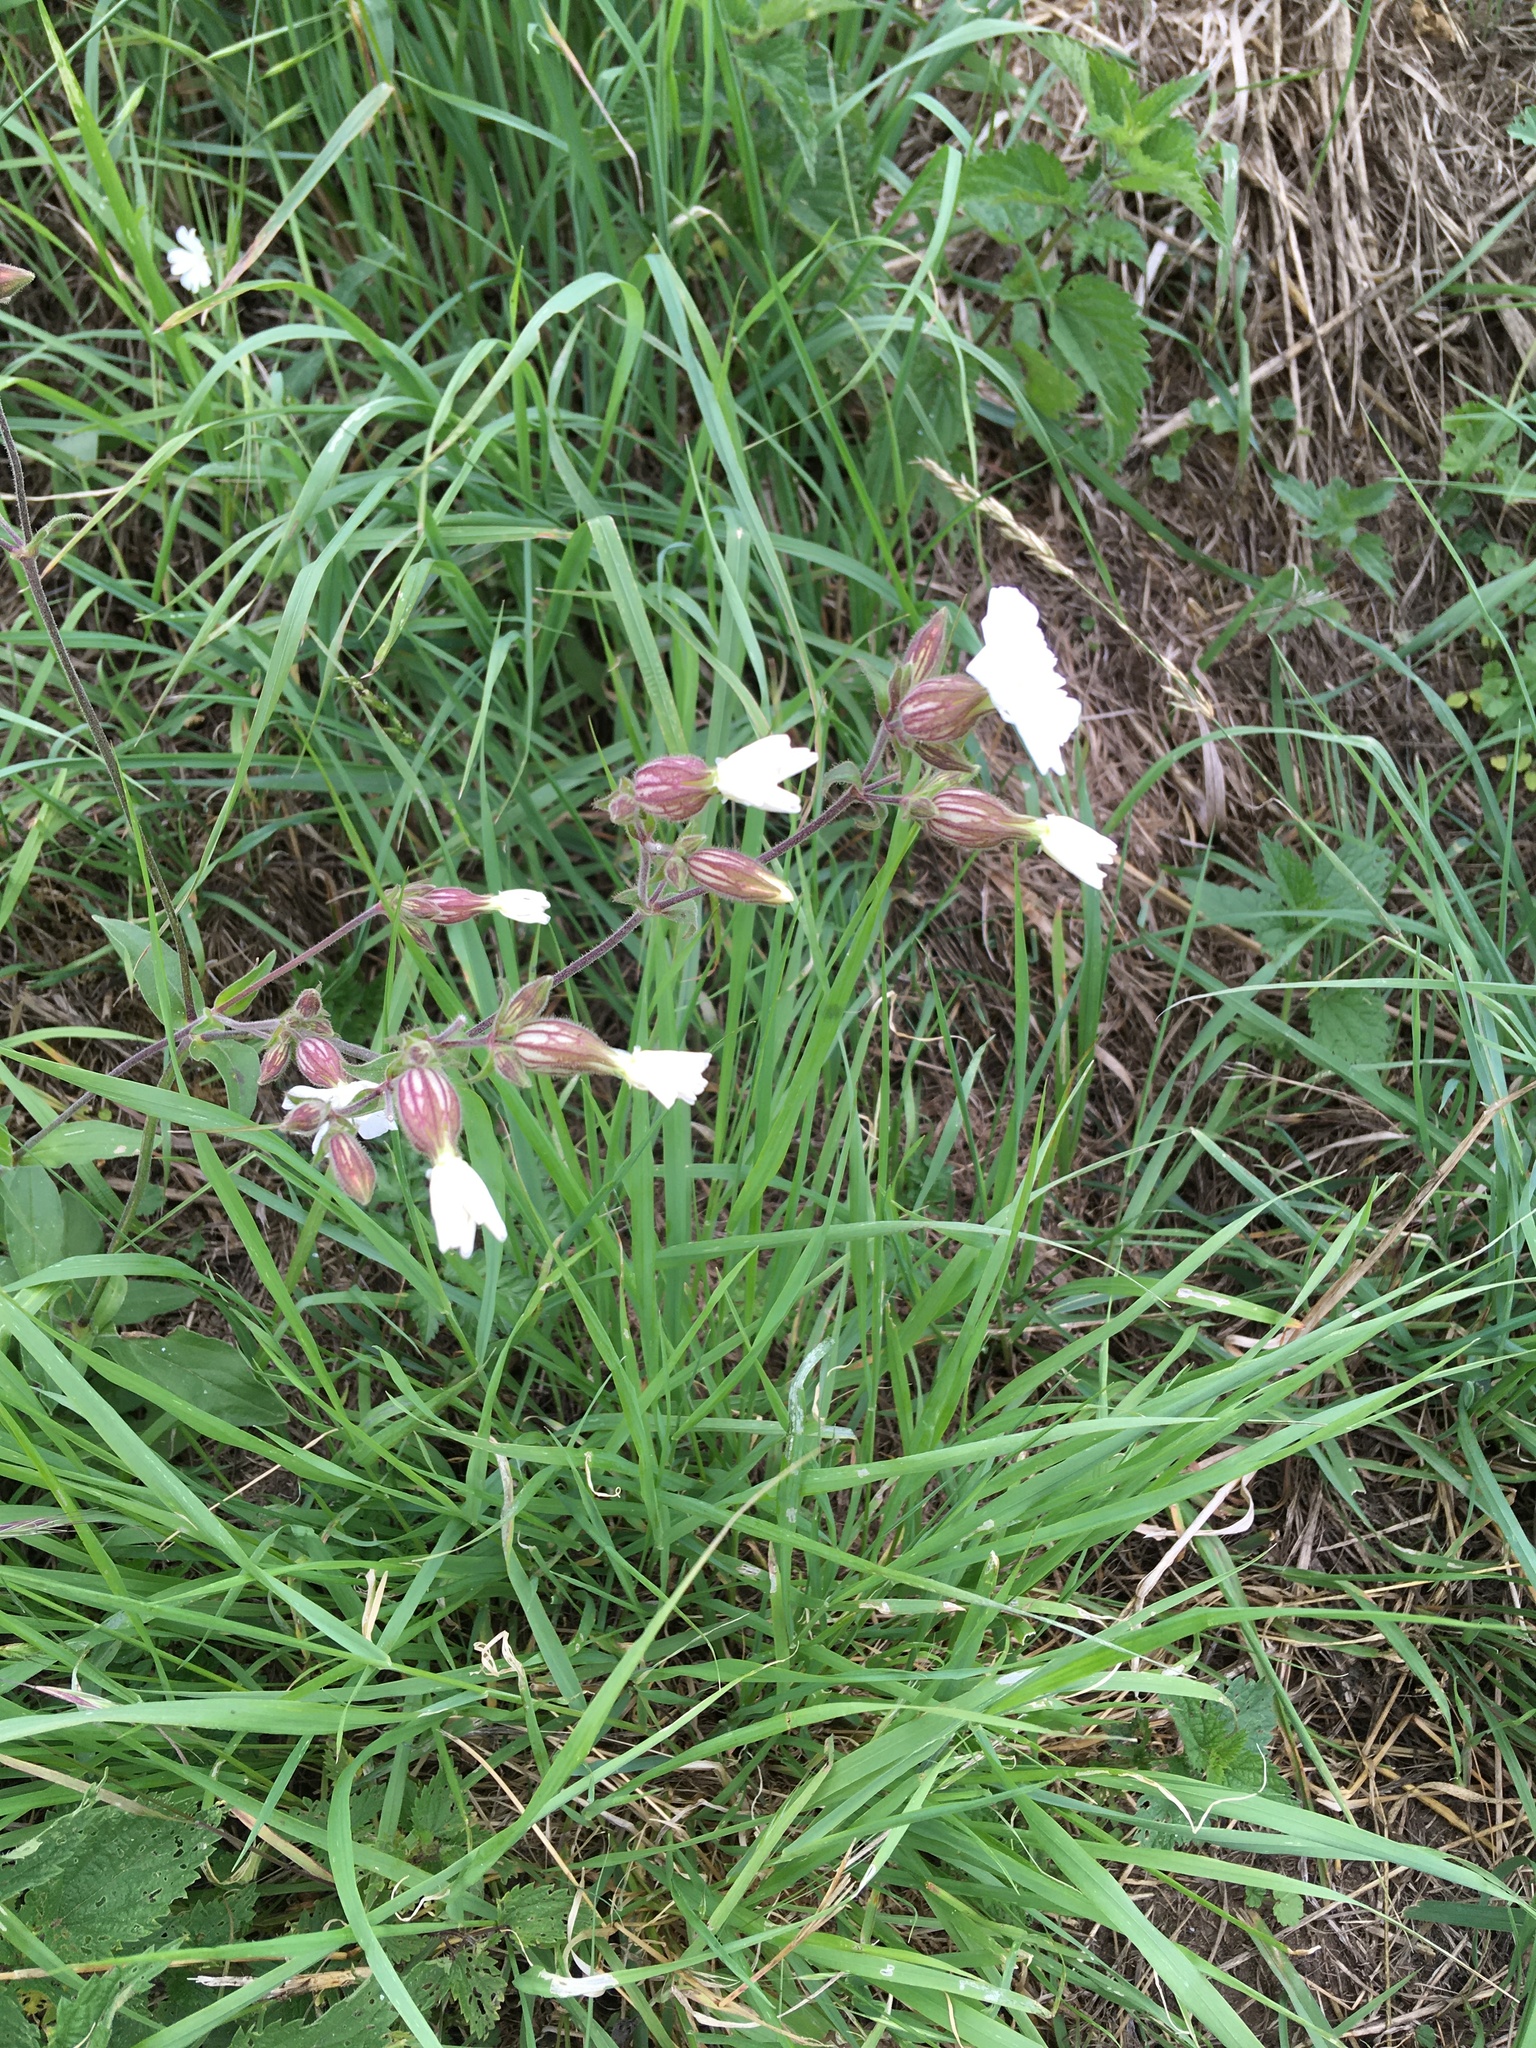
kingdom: Plantae
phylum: Tracheophyta
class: Magnoliopsida
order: Caryophyllales
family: Caryophyllaceae
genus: Silene
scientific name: Silene latifolia
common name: White campion
